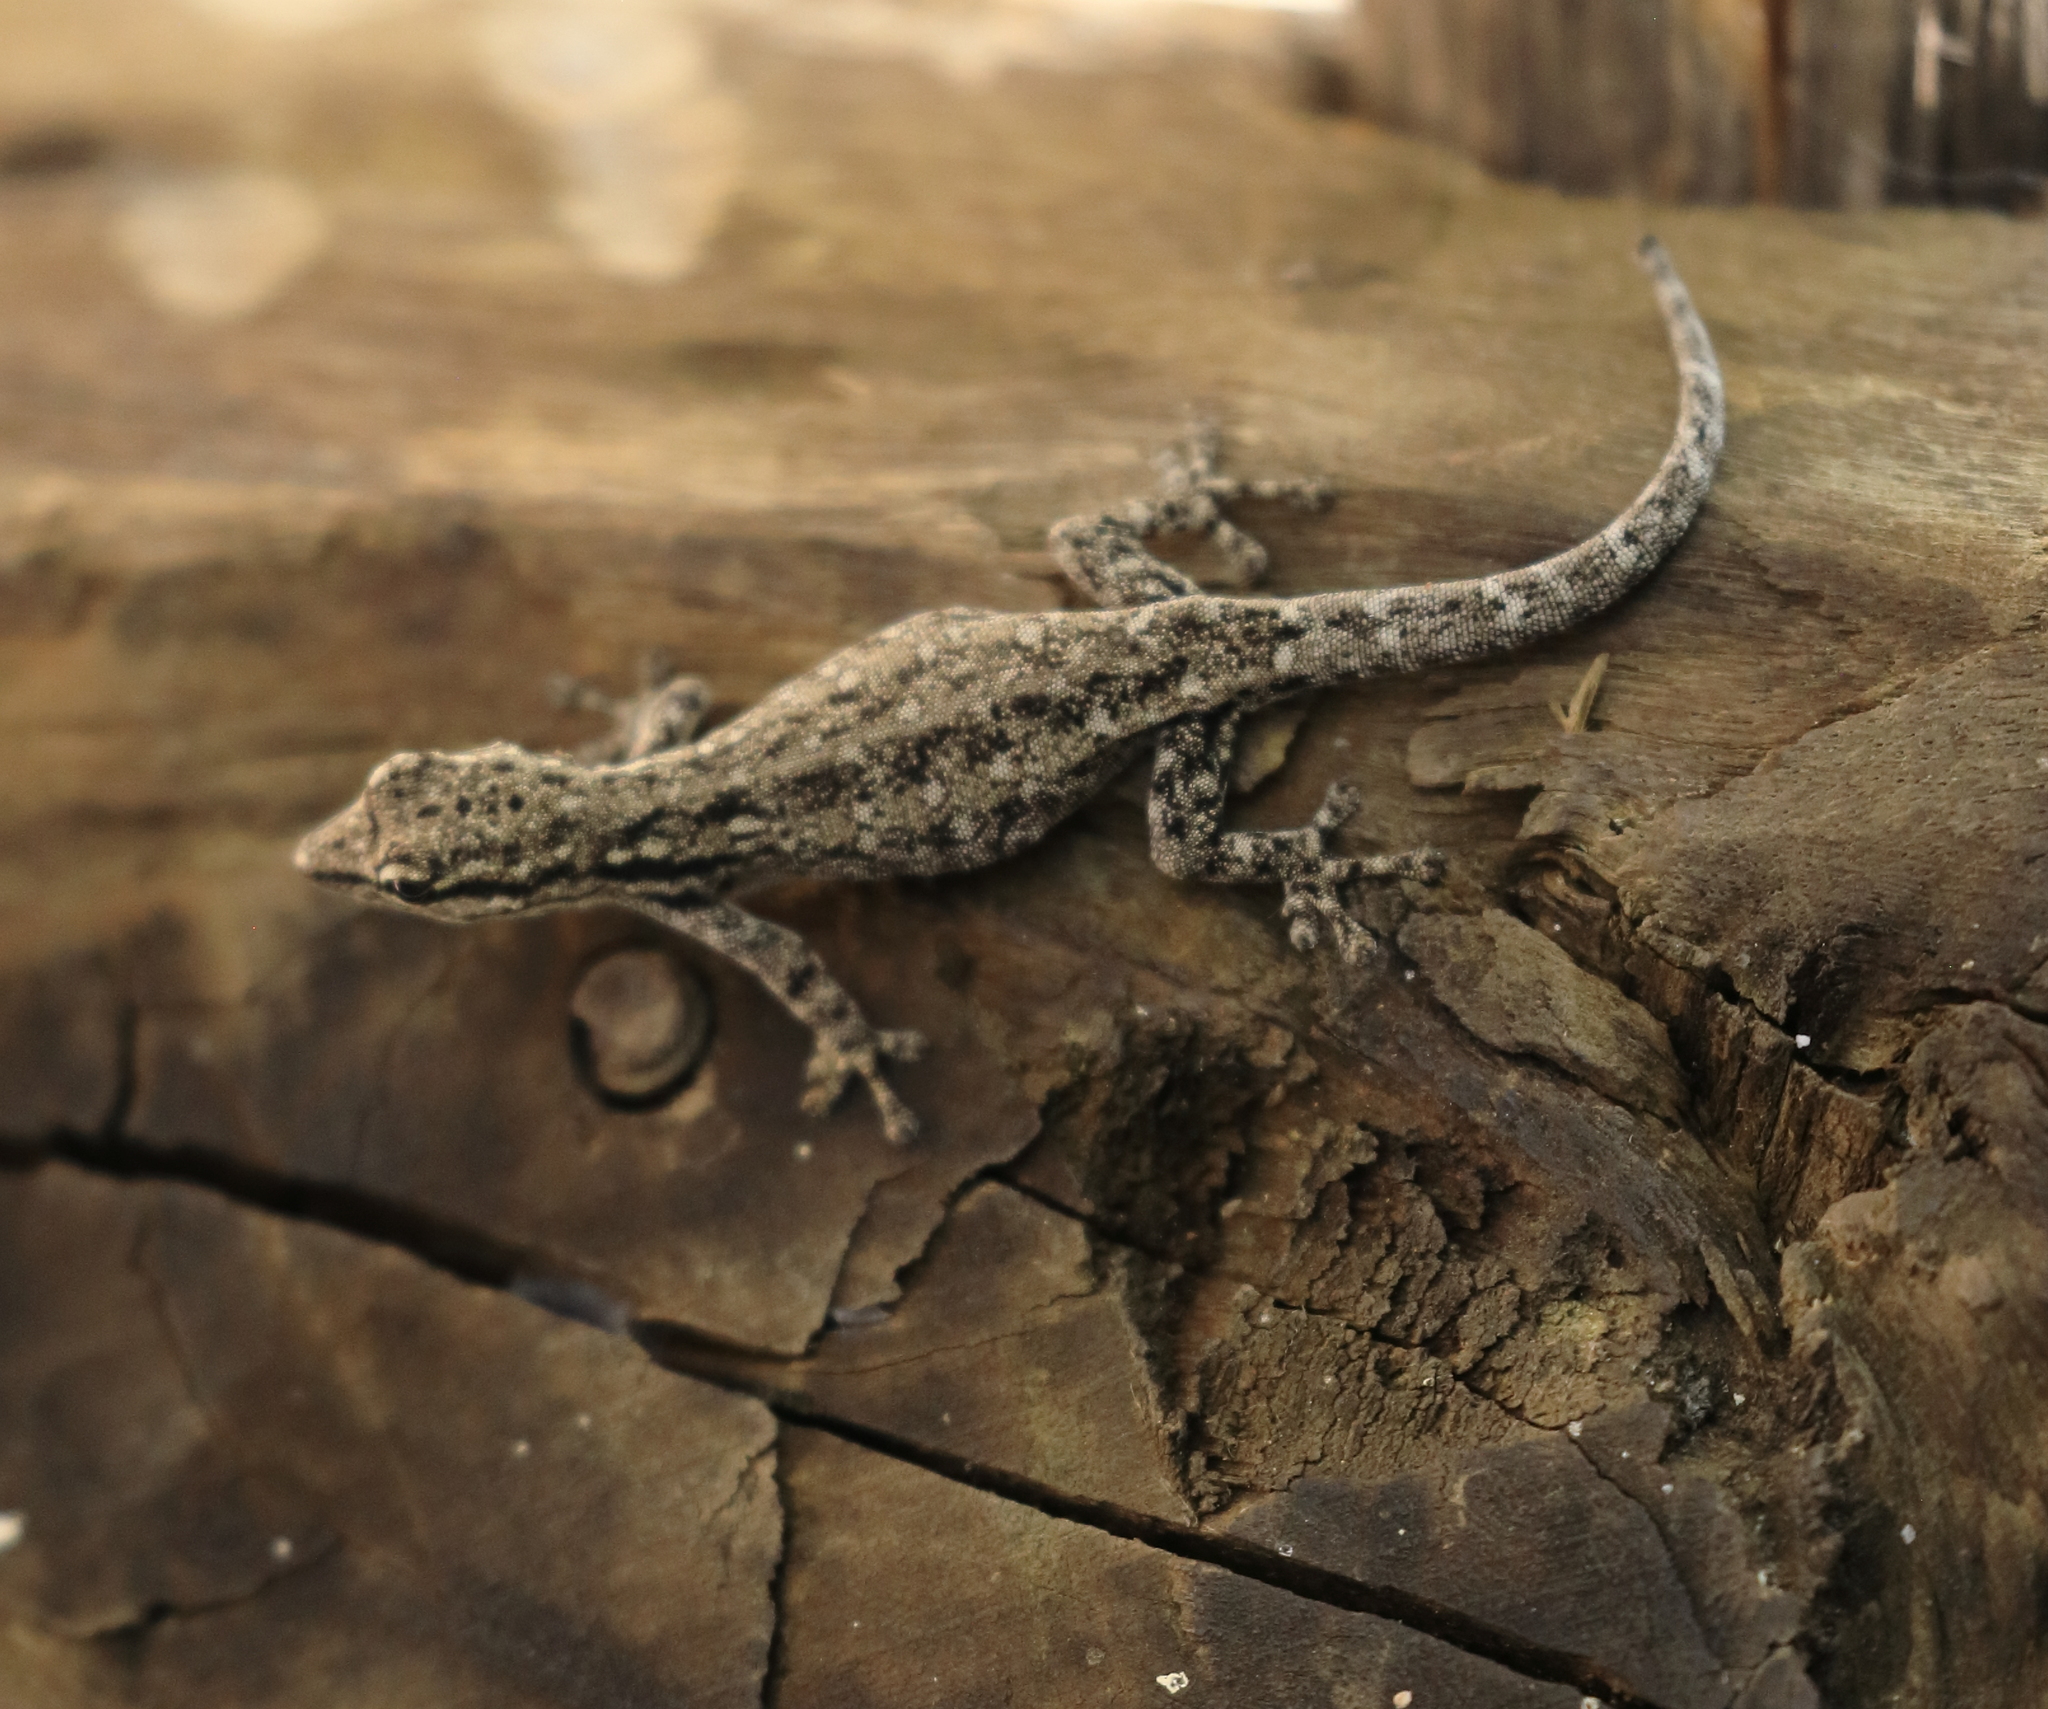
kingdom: Animalia
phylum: Chordata
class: Squamata
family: Gekkonidae
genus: Lygodactylus
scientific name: Lygodactylus chobiensis
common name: Okavango dwarf gecko
